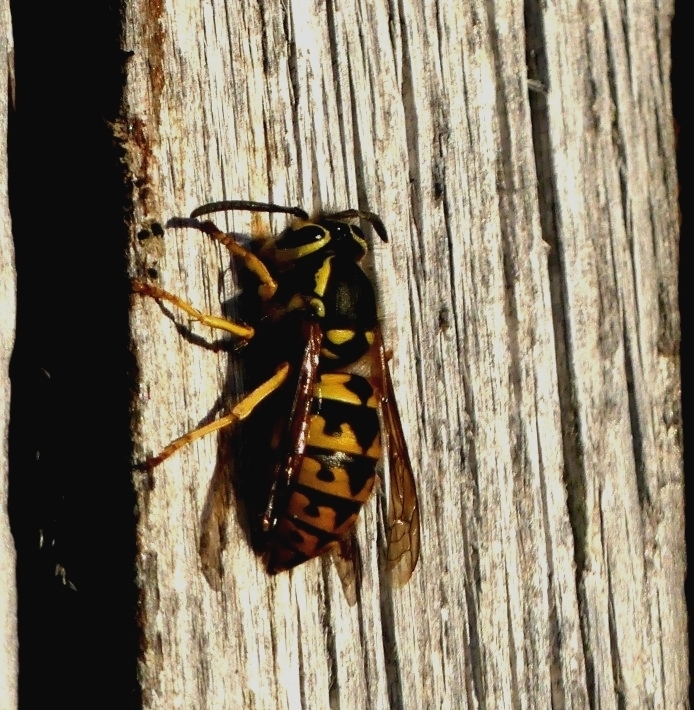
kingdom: Animalia
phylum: Arthropoda
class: Insecta
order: Hymenoptera
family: Vespidae
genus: Vespula
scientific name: Vespula pensylvanica
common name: Western yellowjacket
